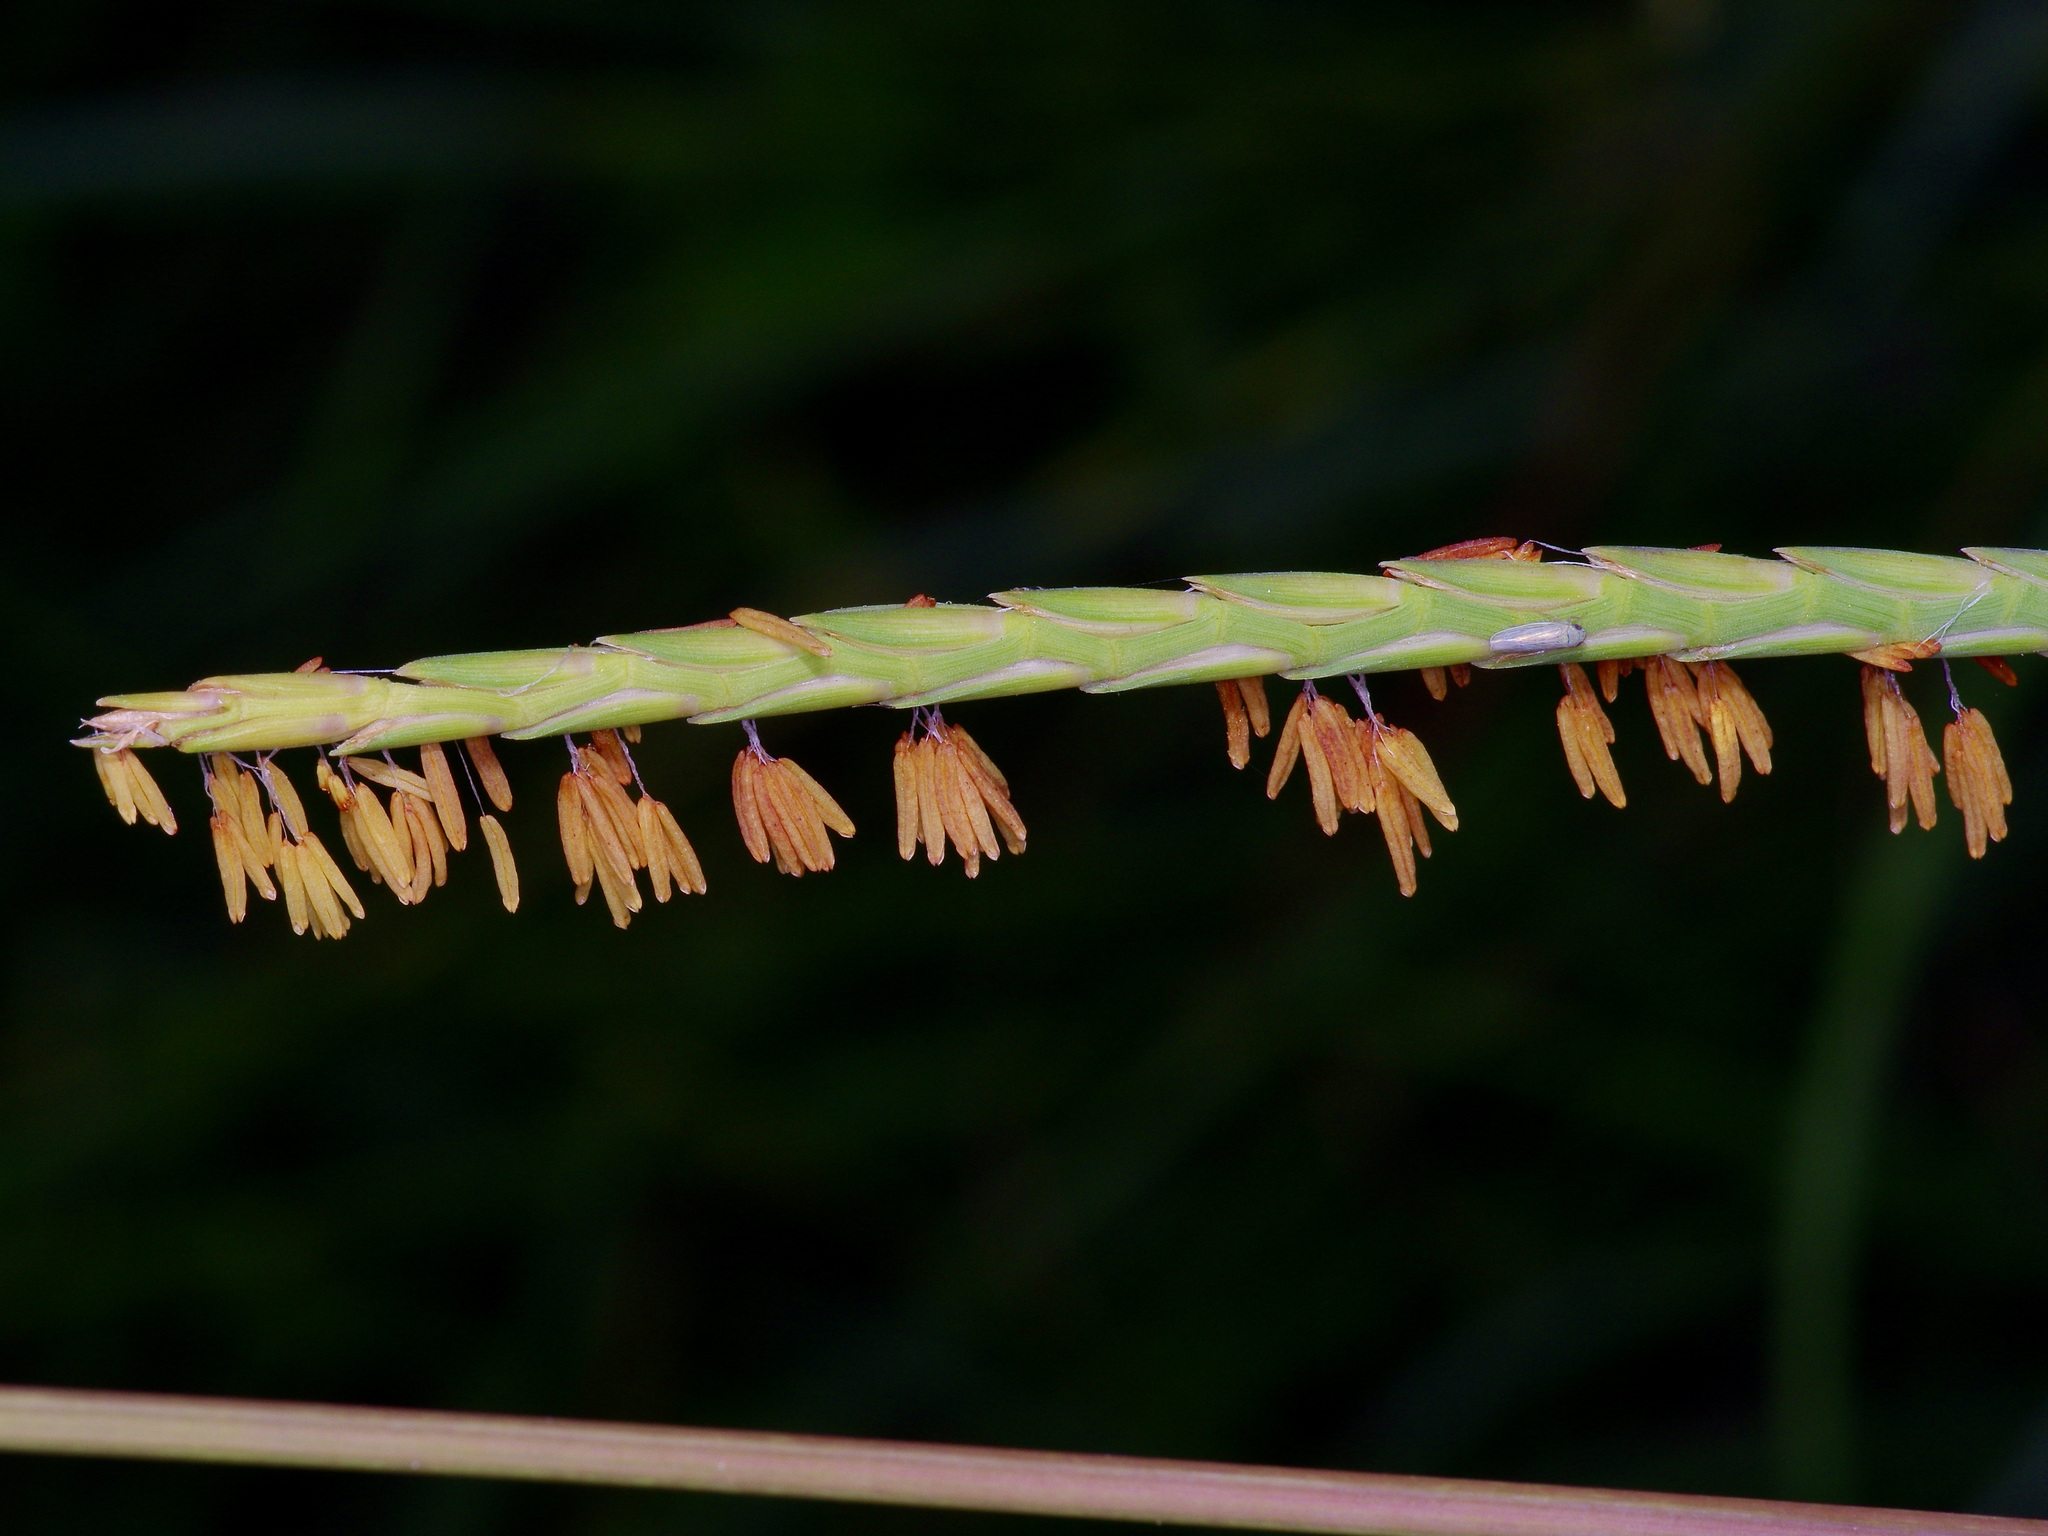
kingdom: Plantae
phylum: Tracheophyta
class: Liliopsida
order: Poales
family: Poaceae
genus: Tripsacum
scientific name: Tripsacum dactyloides
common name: Buffalo-grass
